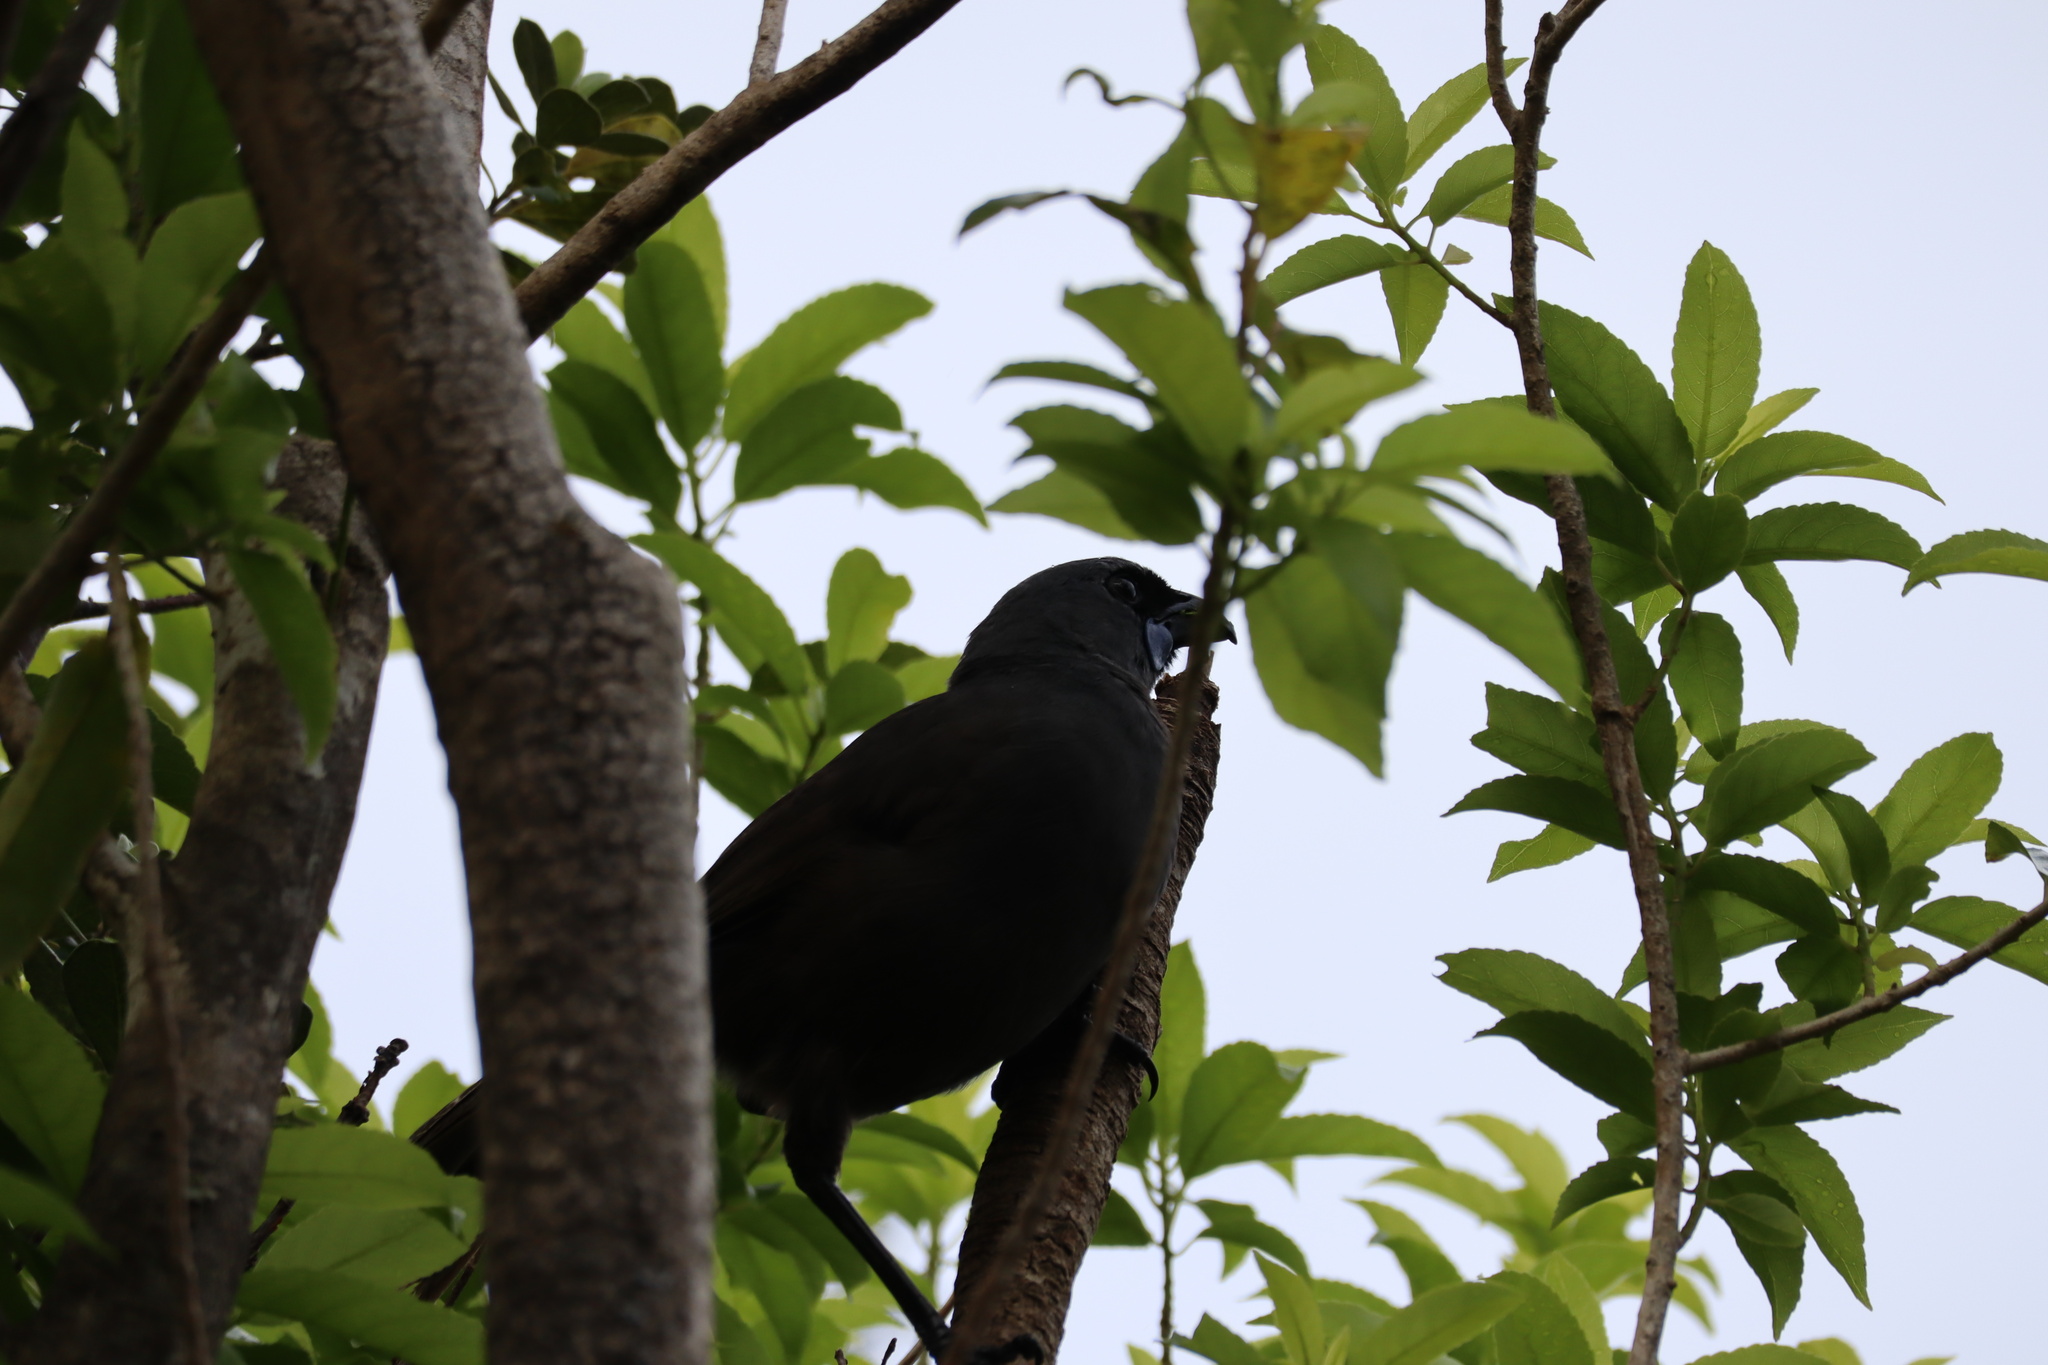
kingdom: Animalia
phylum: Chordata
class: Aves
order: Passeriformes
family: Callaeatidae
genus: Callaeas
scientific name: Callaeas cinereus
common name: South island kokako
